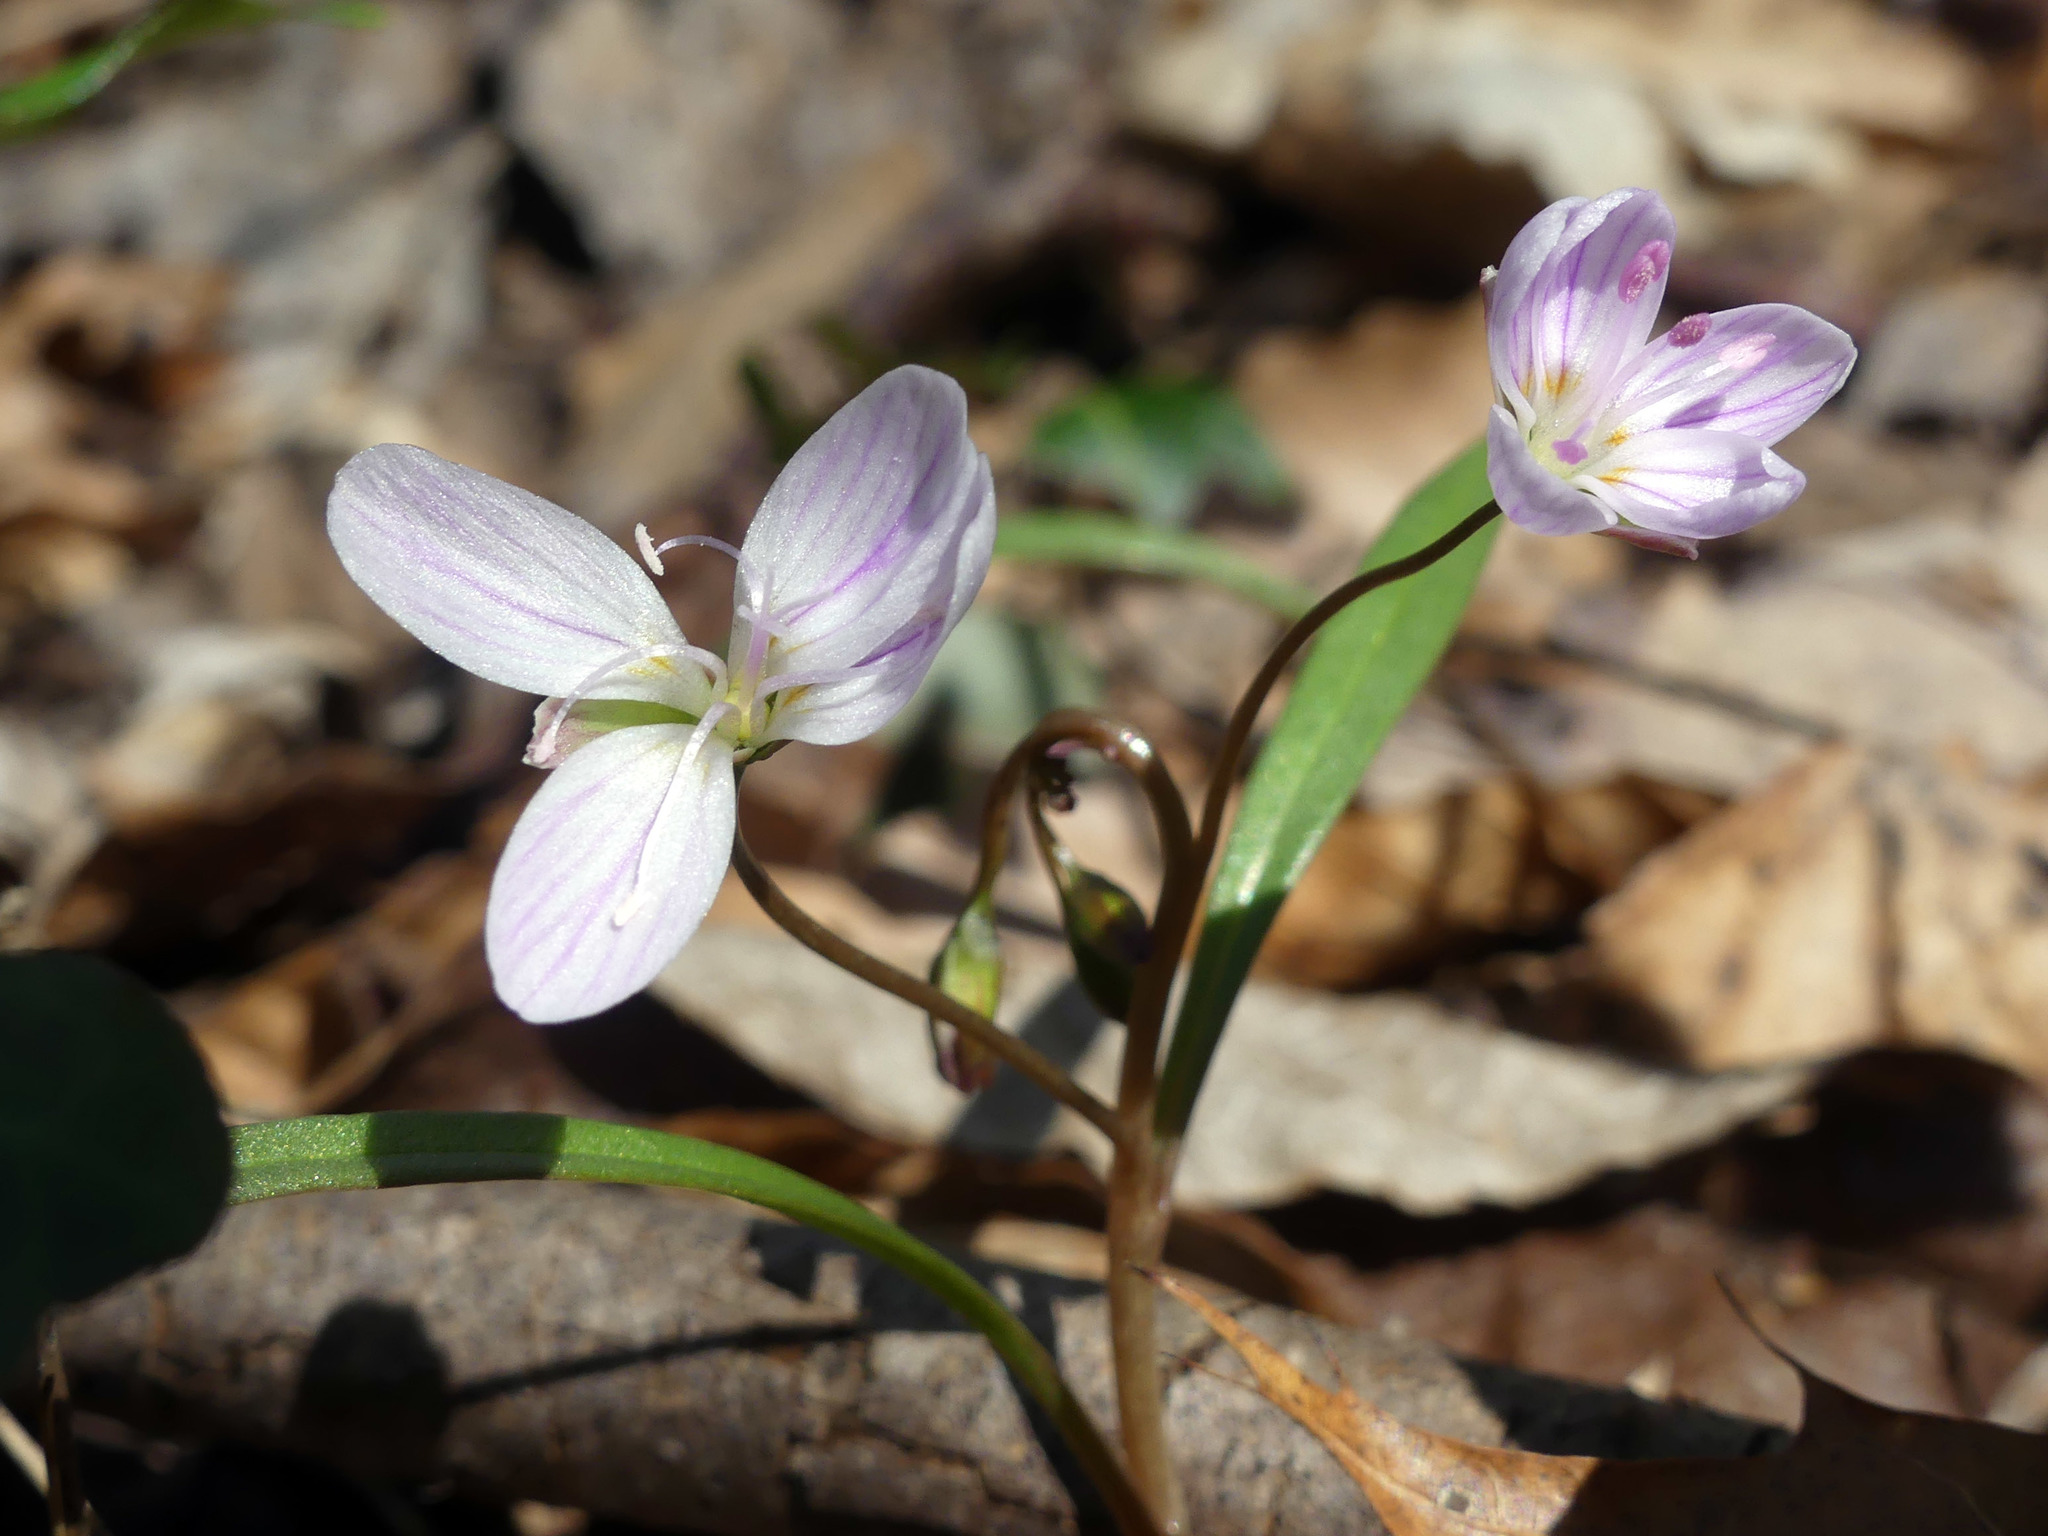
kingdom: Plantae
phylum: Tracheophyta
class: Magnoliopsida
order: Caryophyllales
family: Montiaceae
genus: Claytonia
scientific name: Claytonia virginica
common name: Virginia springbeauty
